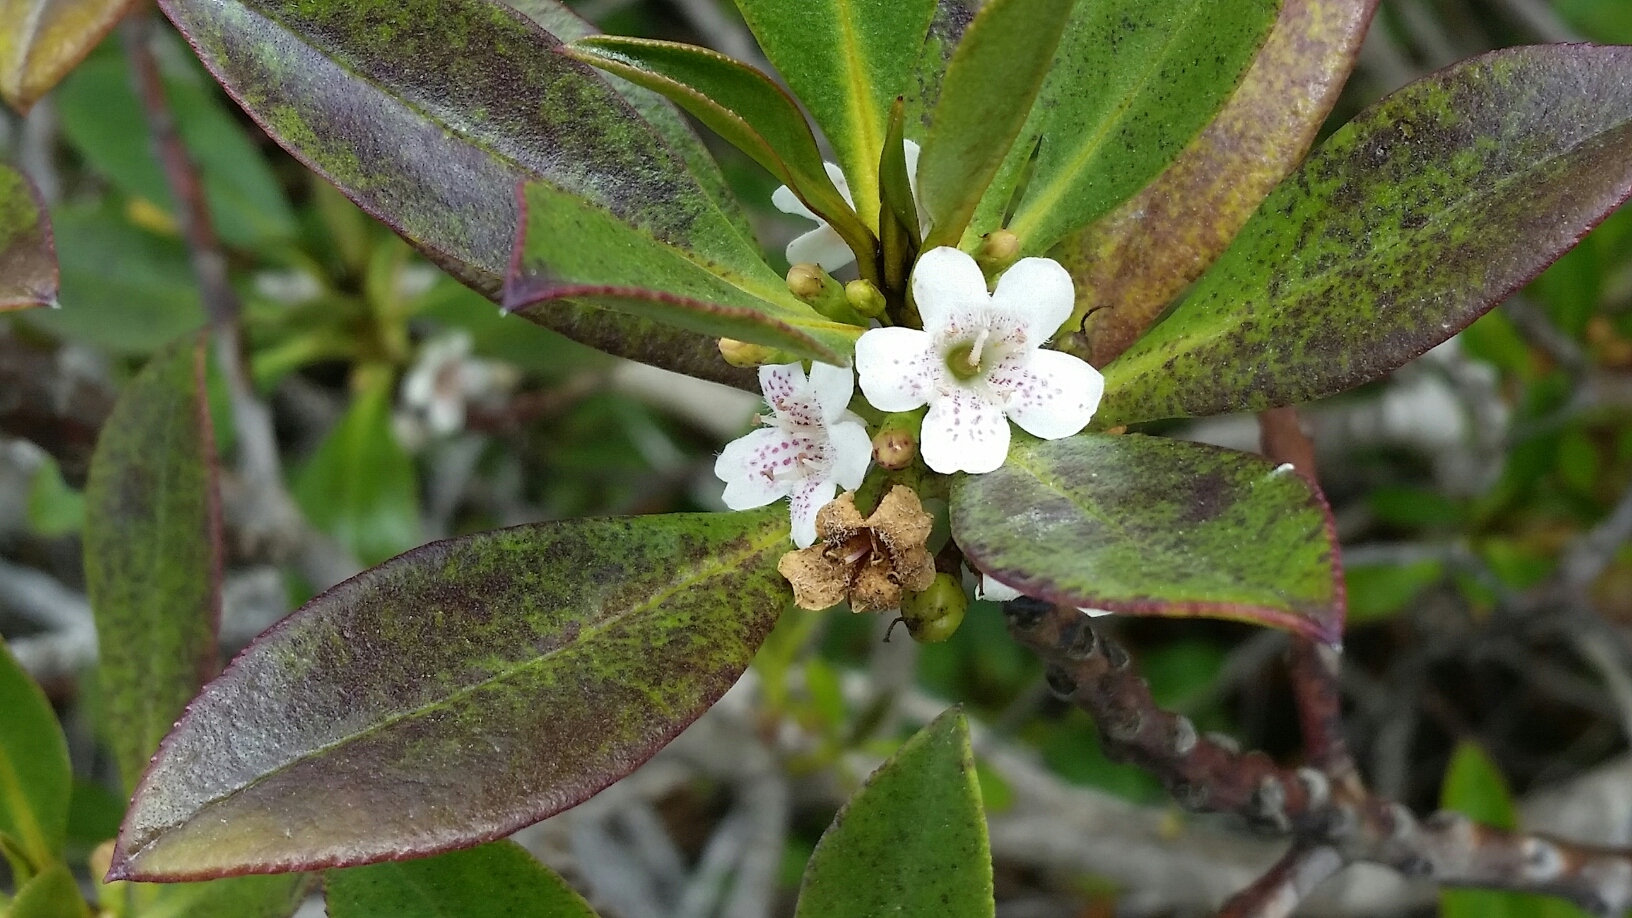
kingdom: Plantae
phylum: Tracheophyta
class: Magnoliopsida
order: Lamiales
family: Scrophulariaceae
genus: Myoporum
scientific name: Myoporum laetum
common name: Ngaio tree
